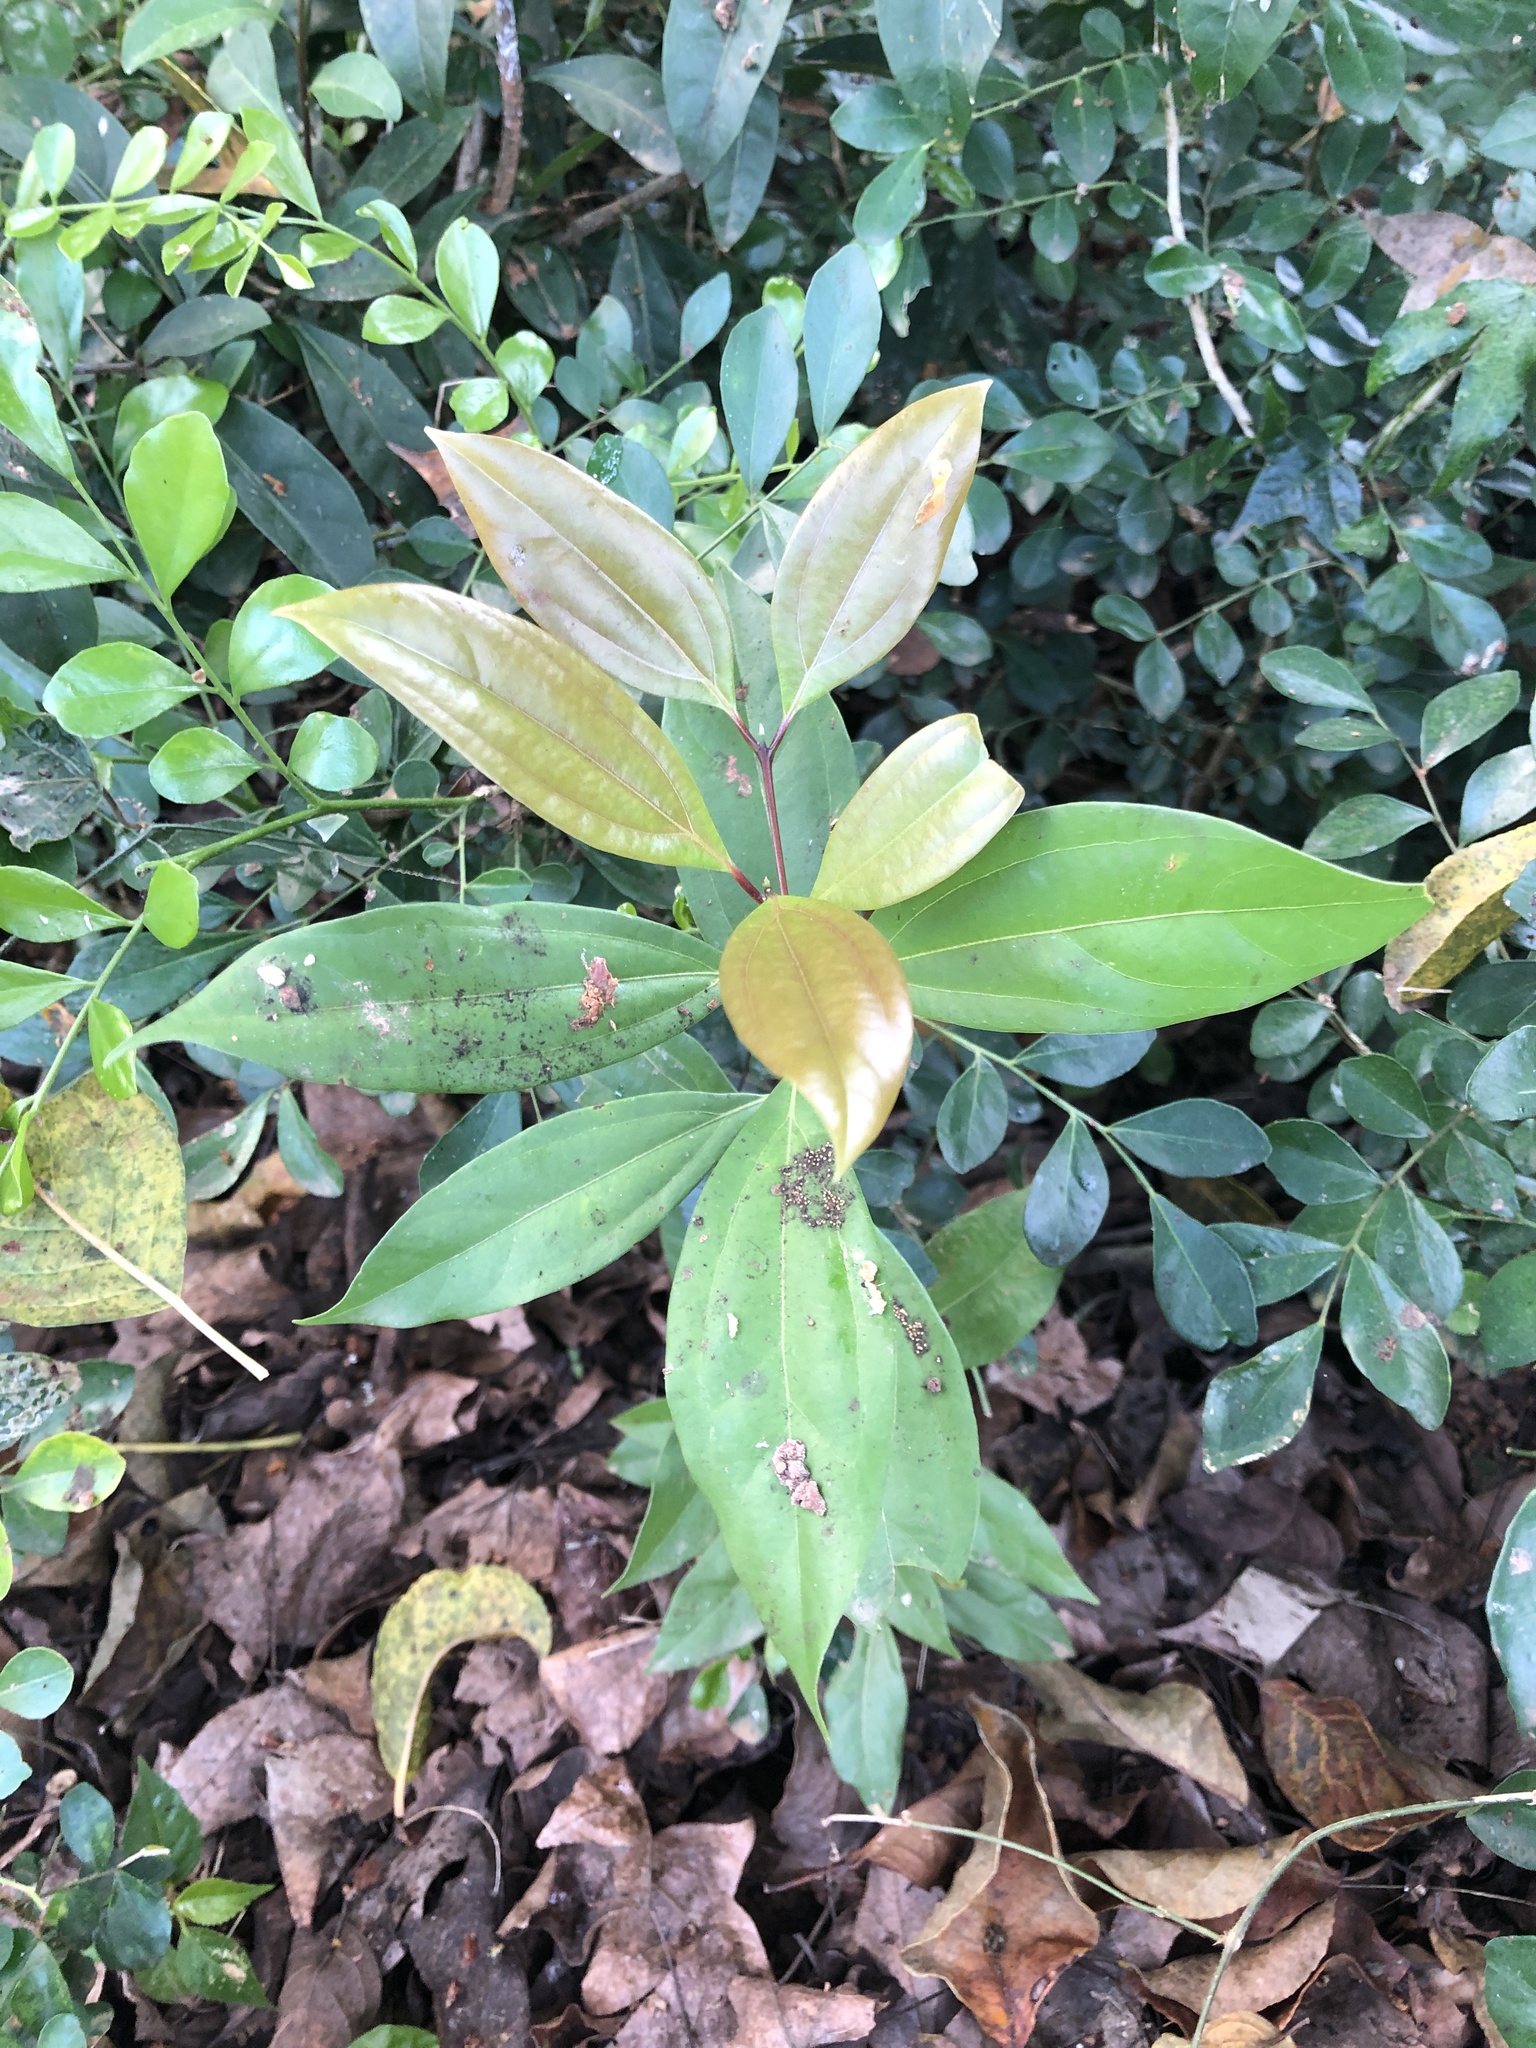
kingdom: Plantae
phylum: Tracheophyta
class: Magnoliopsida
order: Laurales
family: Lauraceae
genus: Cinnamomum
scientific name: Cinnamomum burmanni
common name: Padang cassia
